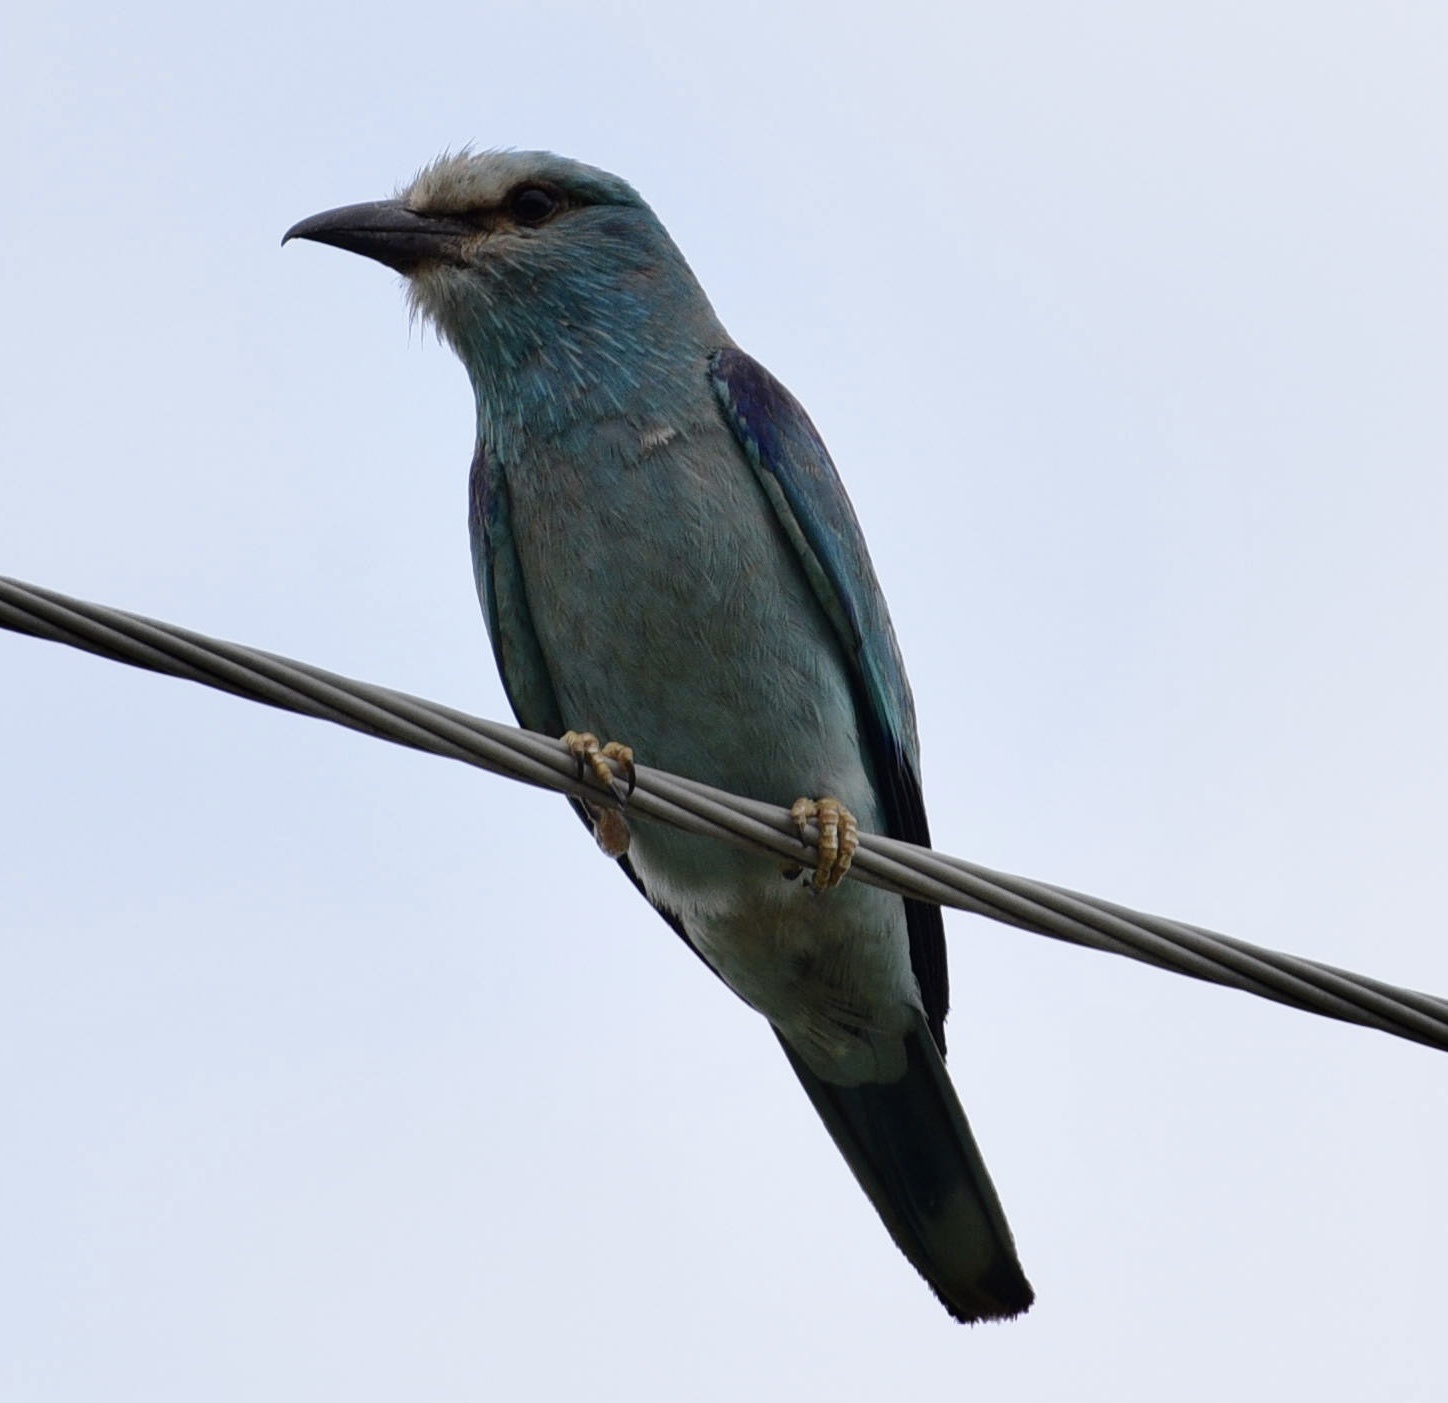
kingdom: Animalia
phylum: Chordata
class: Aves
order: Coraciiformes
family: Coraciidae
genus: Coracias
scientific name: Coracias garrulus
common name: European roller
